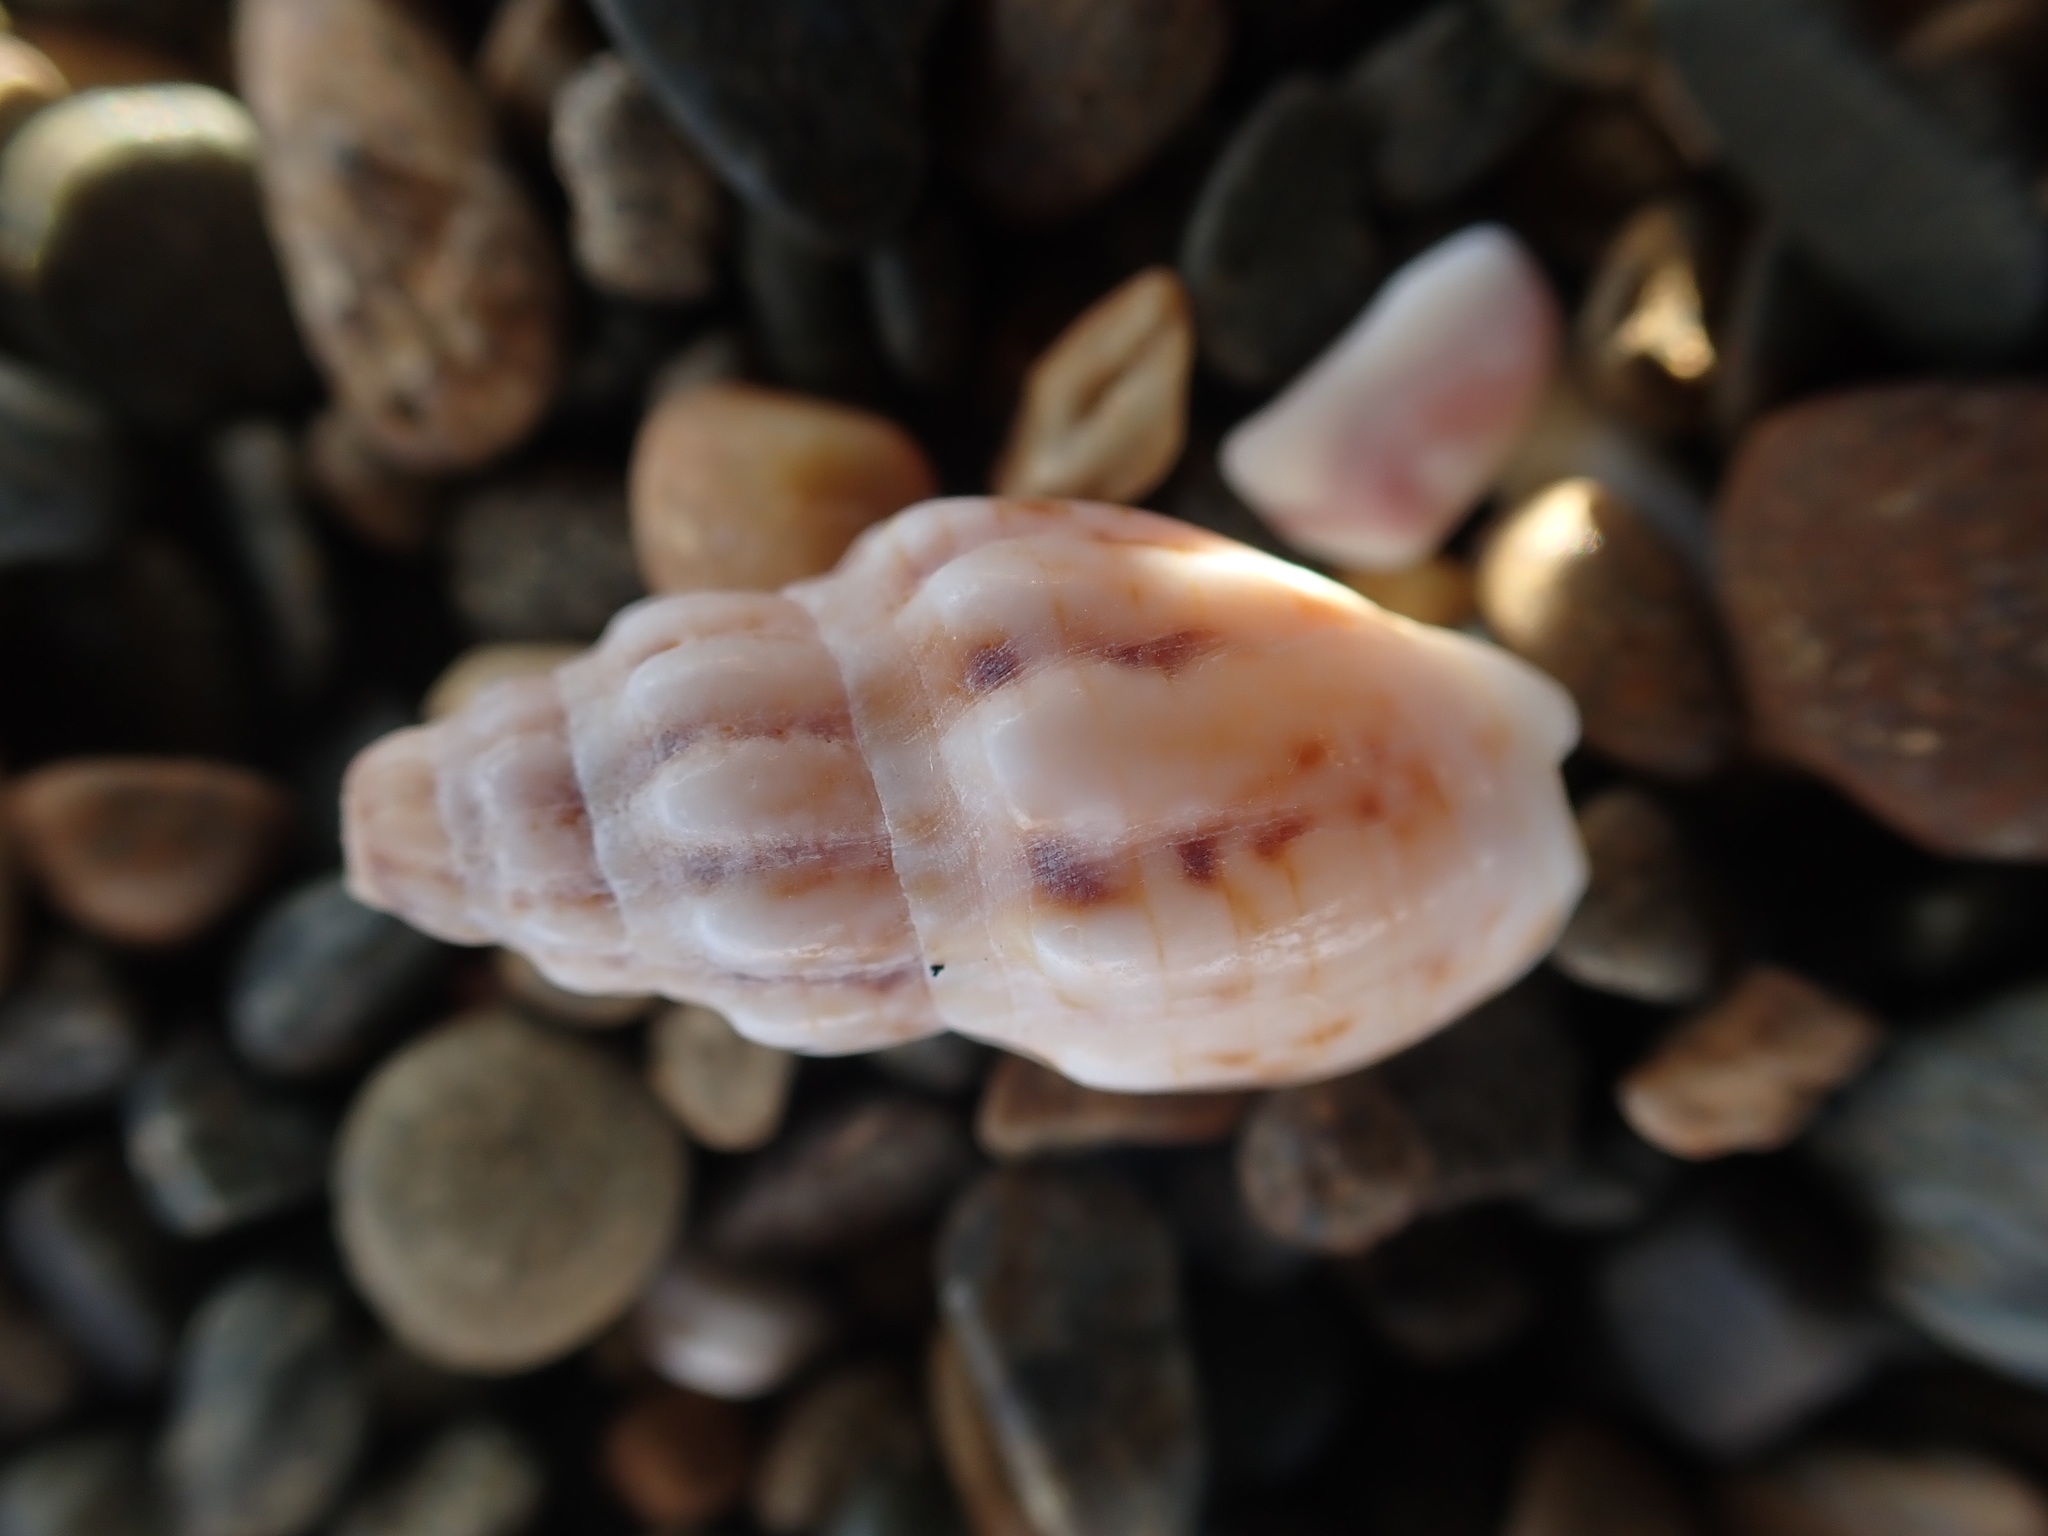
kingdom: Animalia
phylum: Mollusca
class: Gastropoda
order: Neogastropoda
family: Cominellidae
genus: Cominella
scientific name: Cominella quoyana
